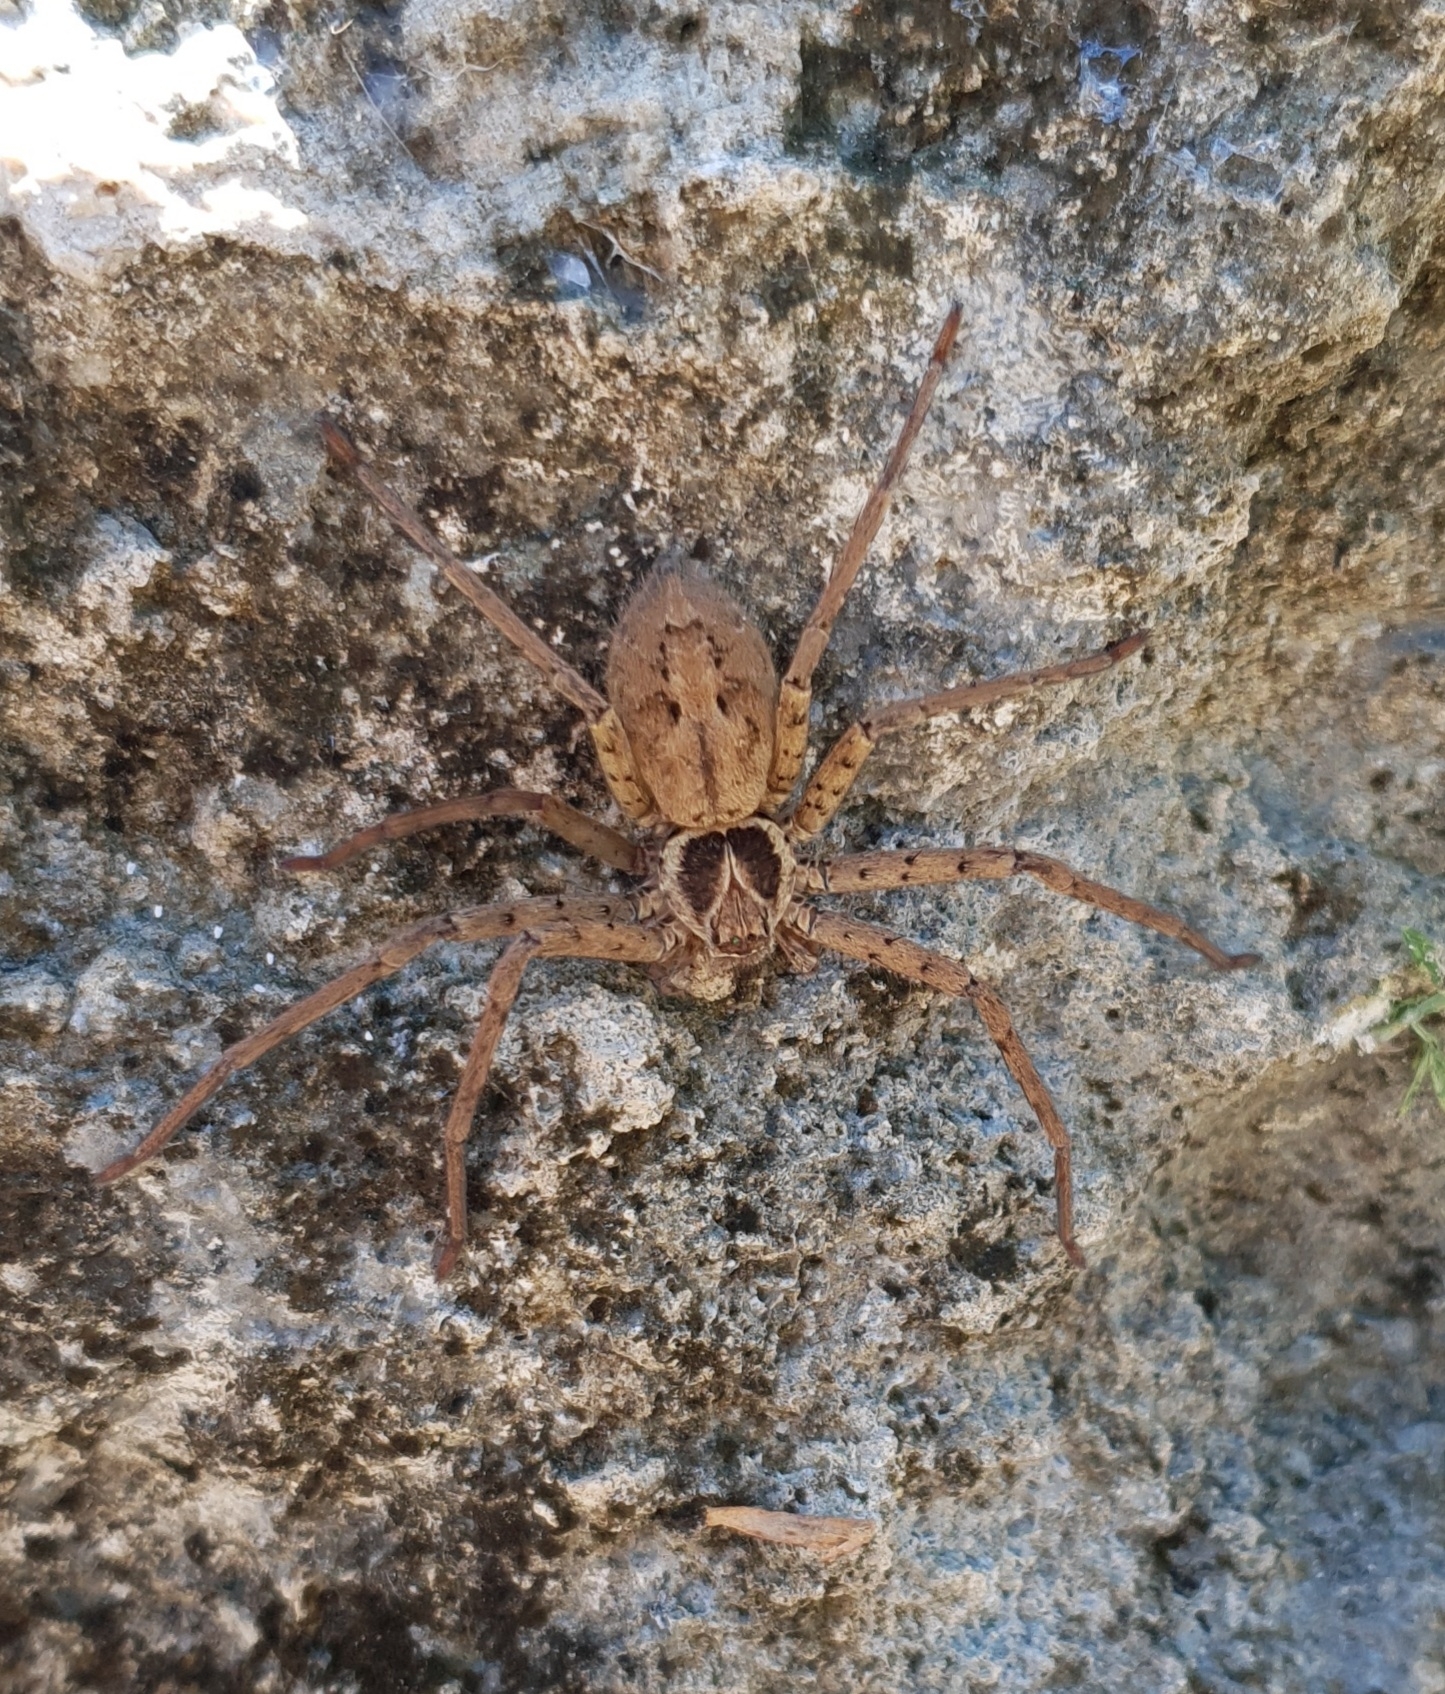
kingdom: Animalia
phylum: Arthropoda
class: Arachnida
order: Araneae
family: Sparassidae
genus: Heteropoda
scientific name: Heteropoda venatoria
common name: Huntsman spider
